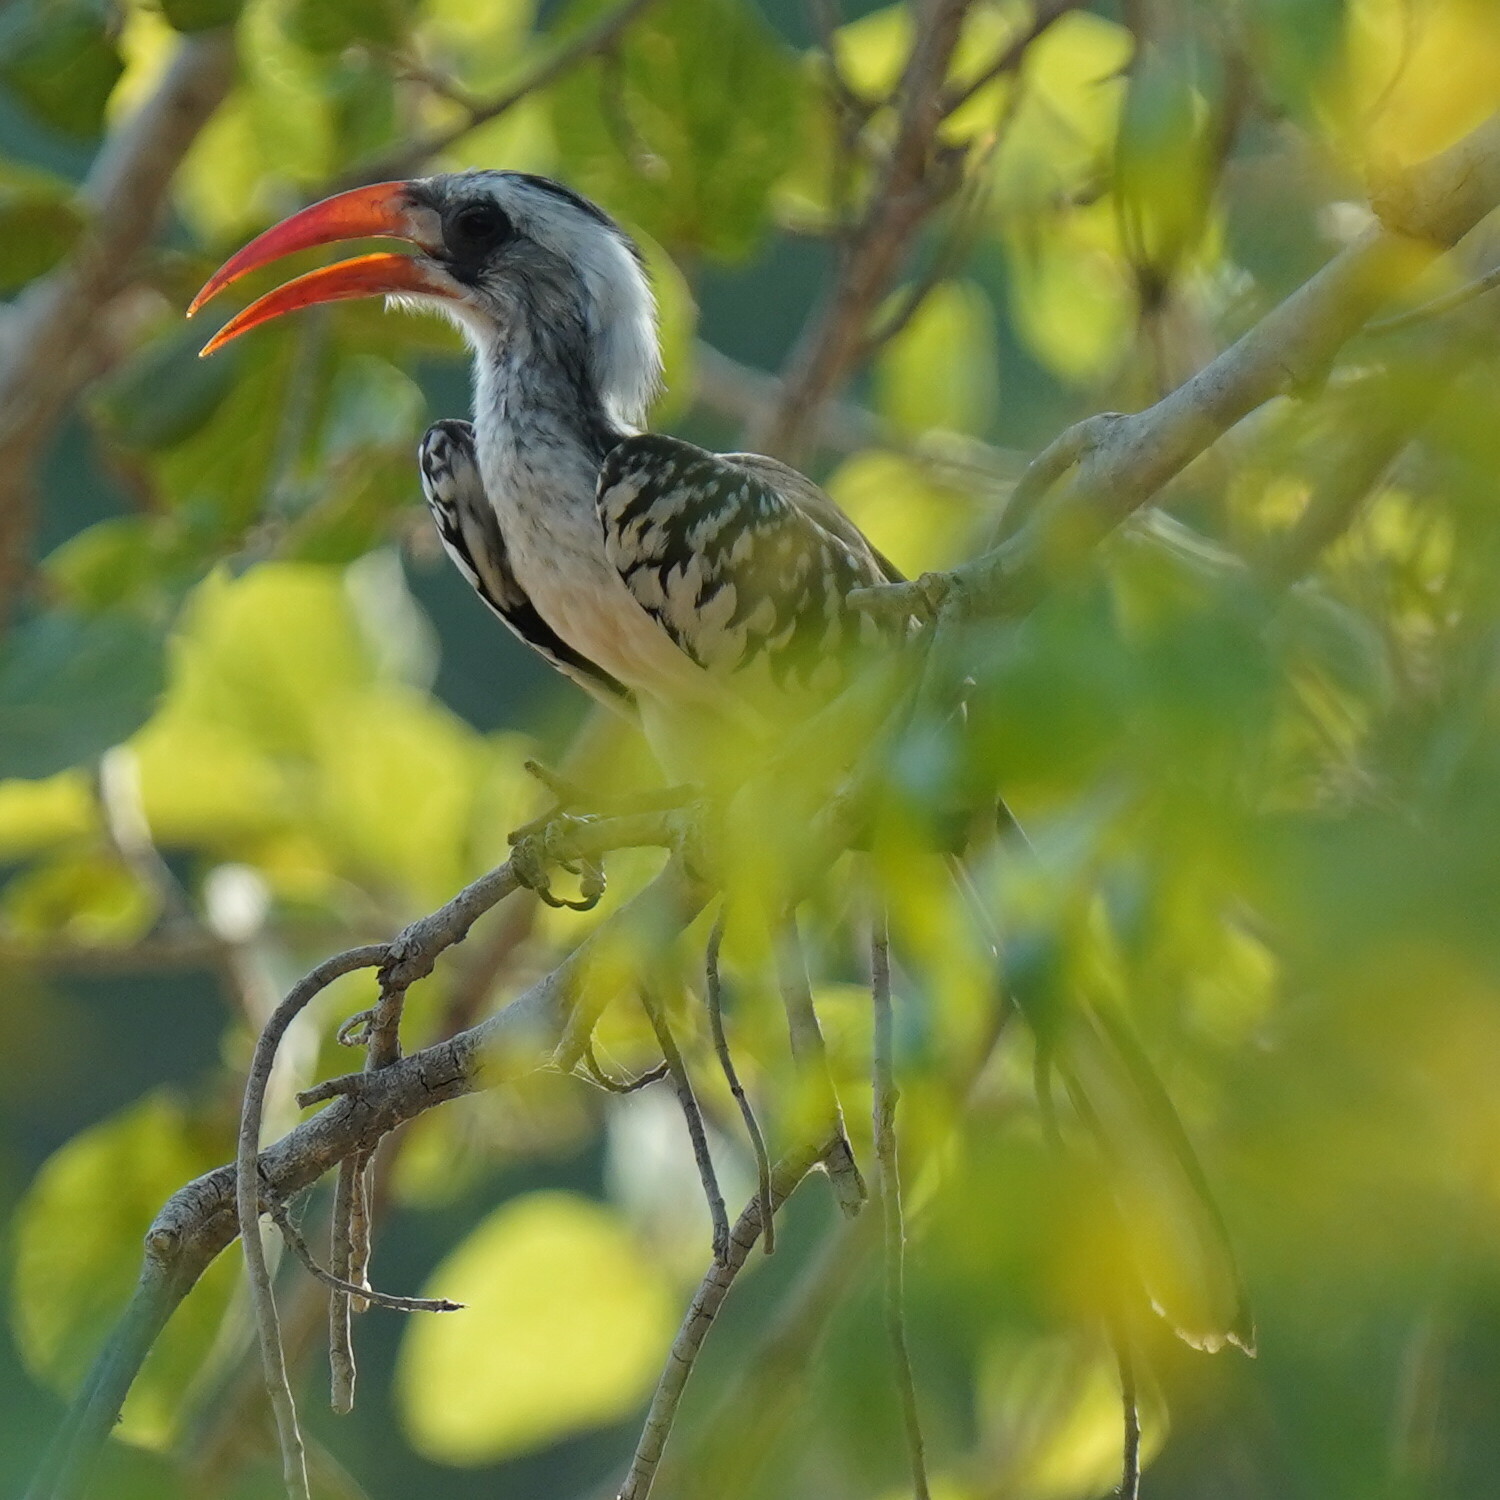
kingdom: Animalia
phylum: Chordata
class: Aves
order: Bucerotiformes
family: Bucerotidae
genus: Tockus
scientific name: Tockus kempi
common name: Western red-billed hornbill
